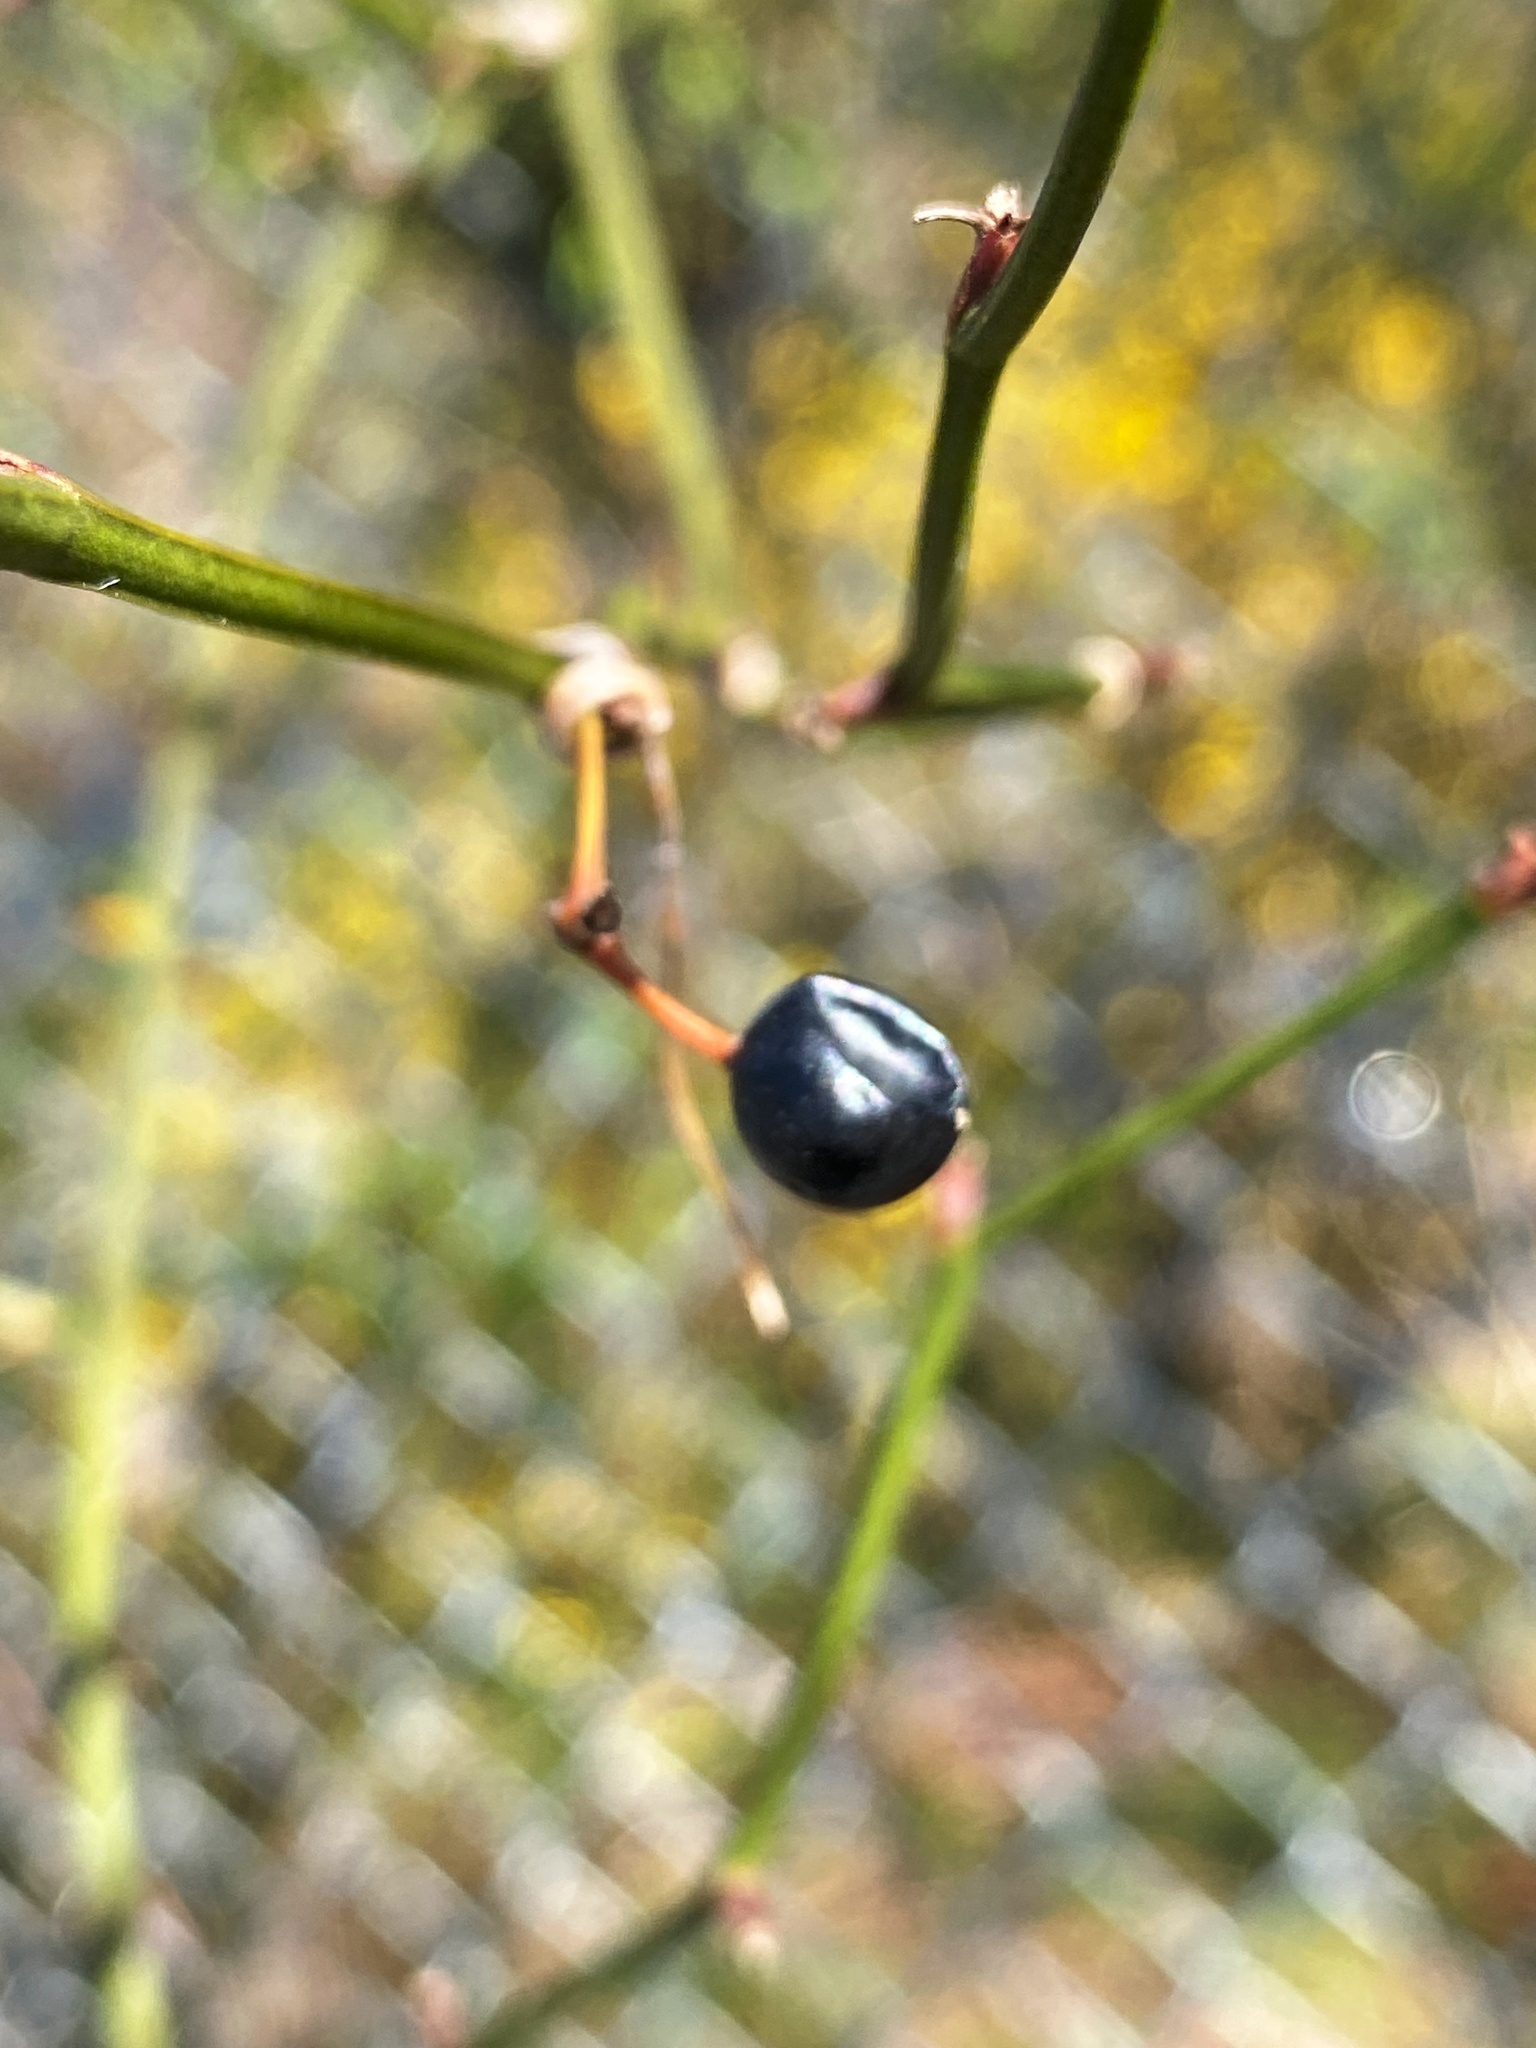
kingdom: Plantae
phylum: Tracheophyta
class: Liliopsida
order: Liliales
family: Smilacaceae
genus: Smilax
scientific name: Smilax rotundifolia
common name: Bullbriar
